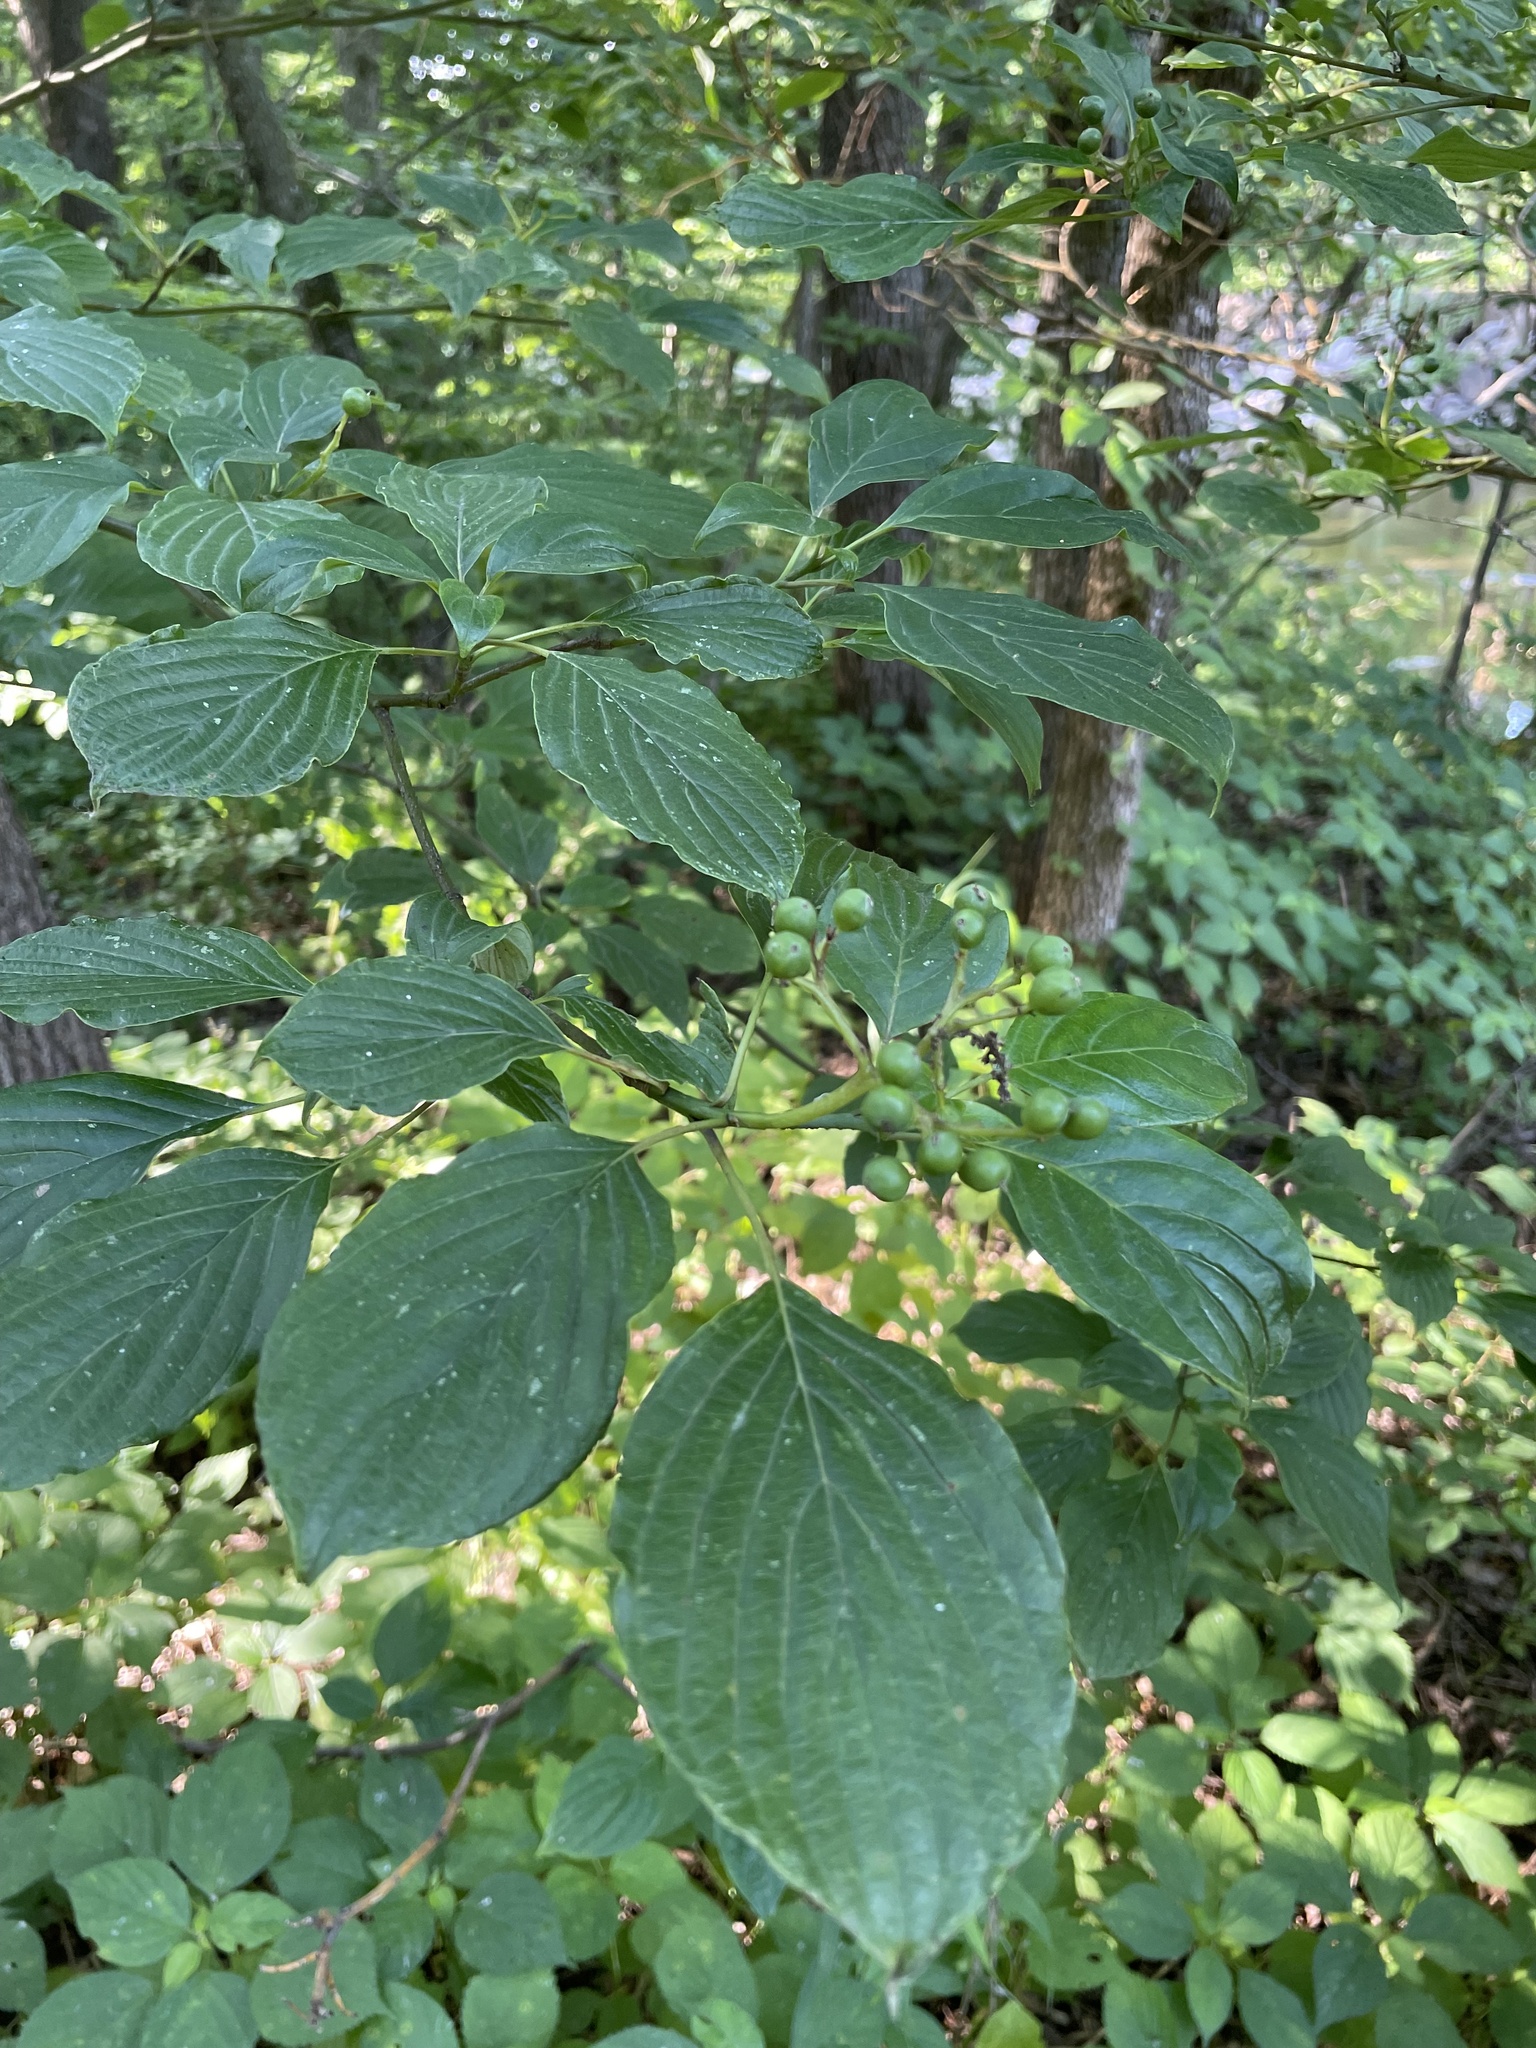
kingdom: Plantae
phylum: Tracheophyta
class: Magnoliopsida
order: Cornales
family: Cornaceae
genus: Cornus
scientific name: Cornus alternifolia
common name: Pagoda dogwood
